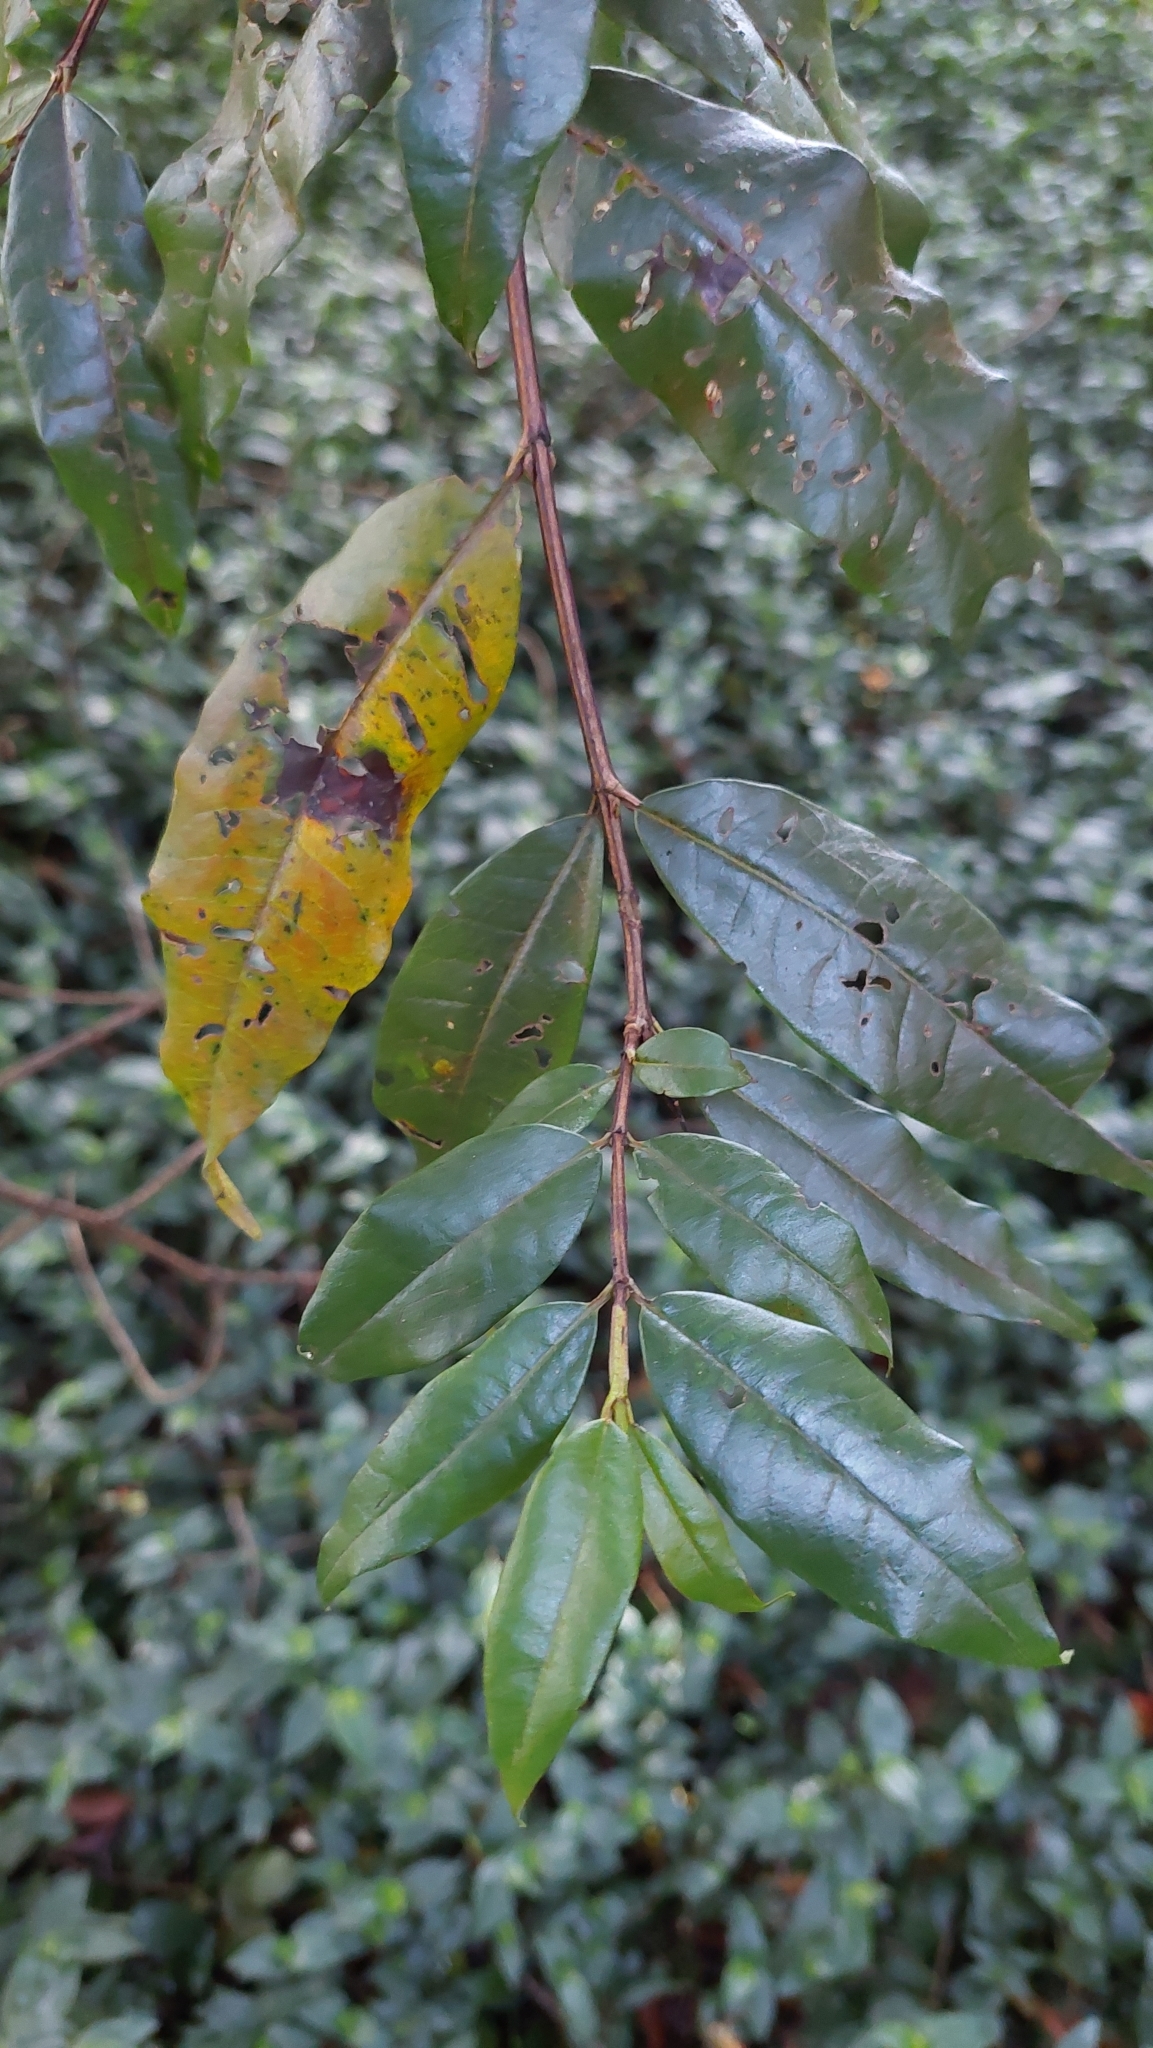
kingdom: Plantae
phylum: Tracheophyta
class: Magnoliopsida
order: Myrtales
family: Lythraceae
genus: Lafoensia
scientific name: Lafoensia acuminata
